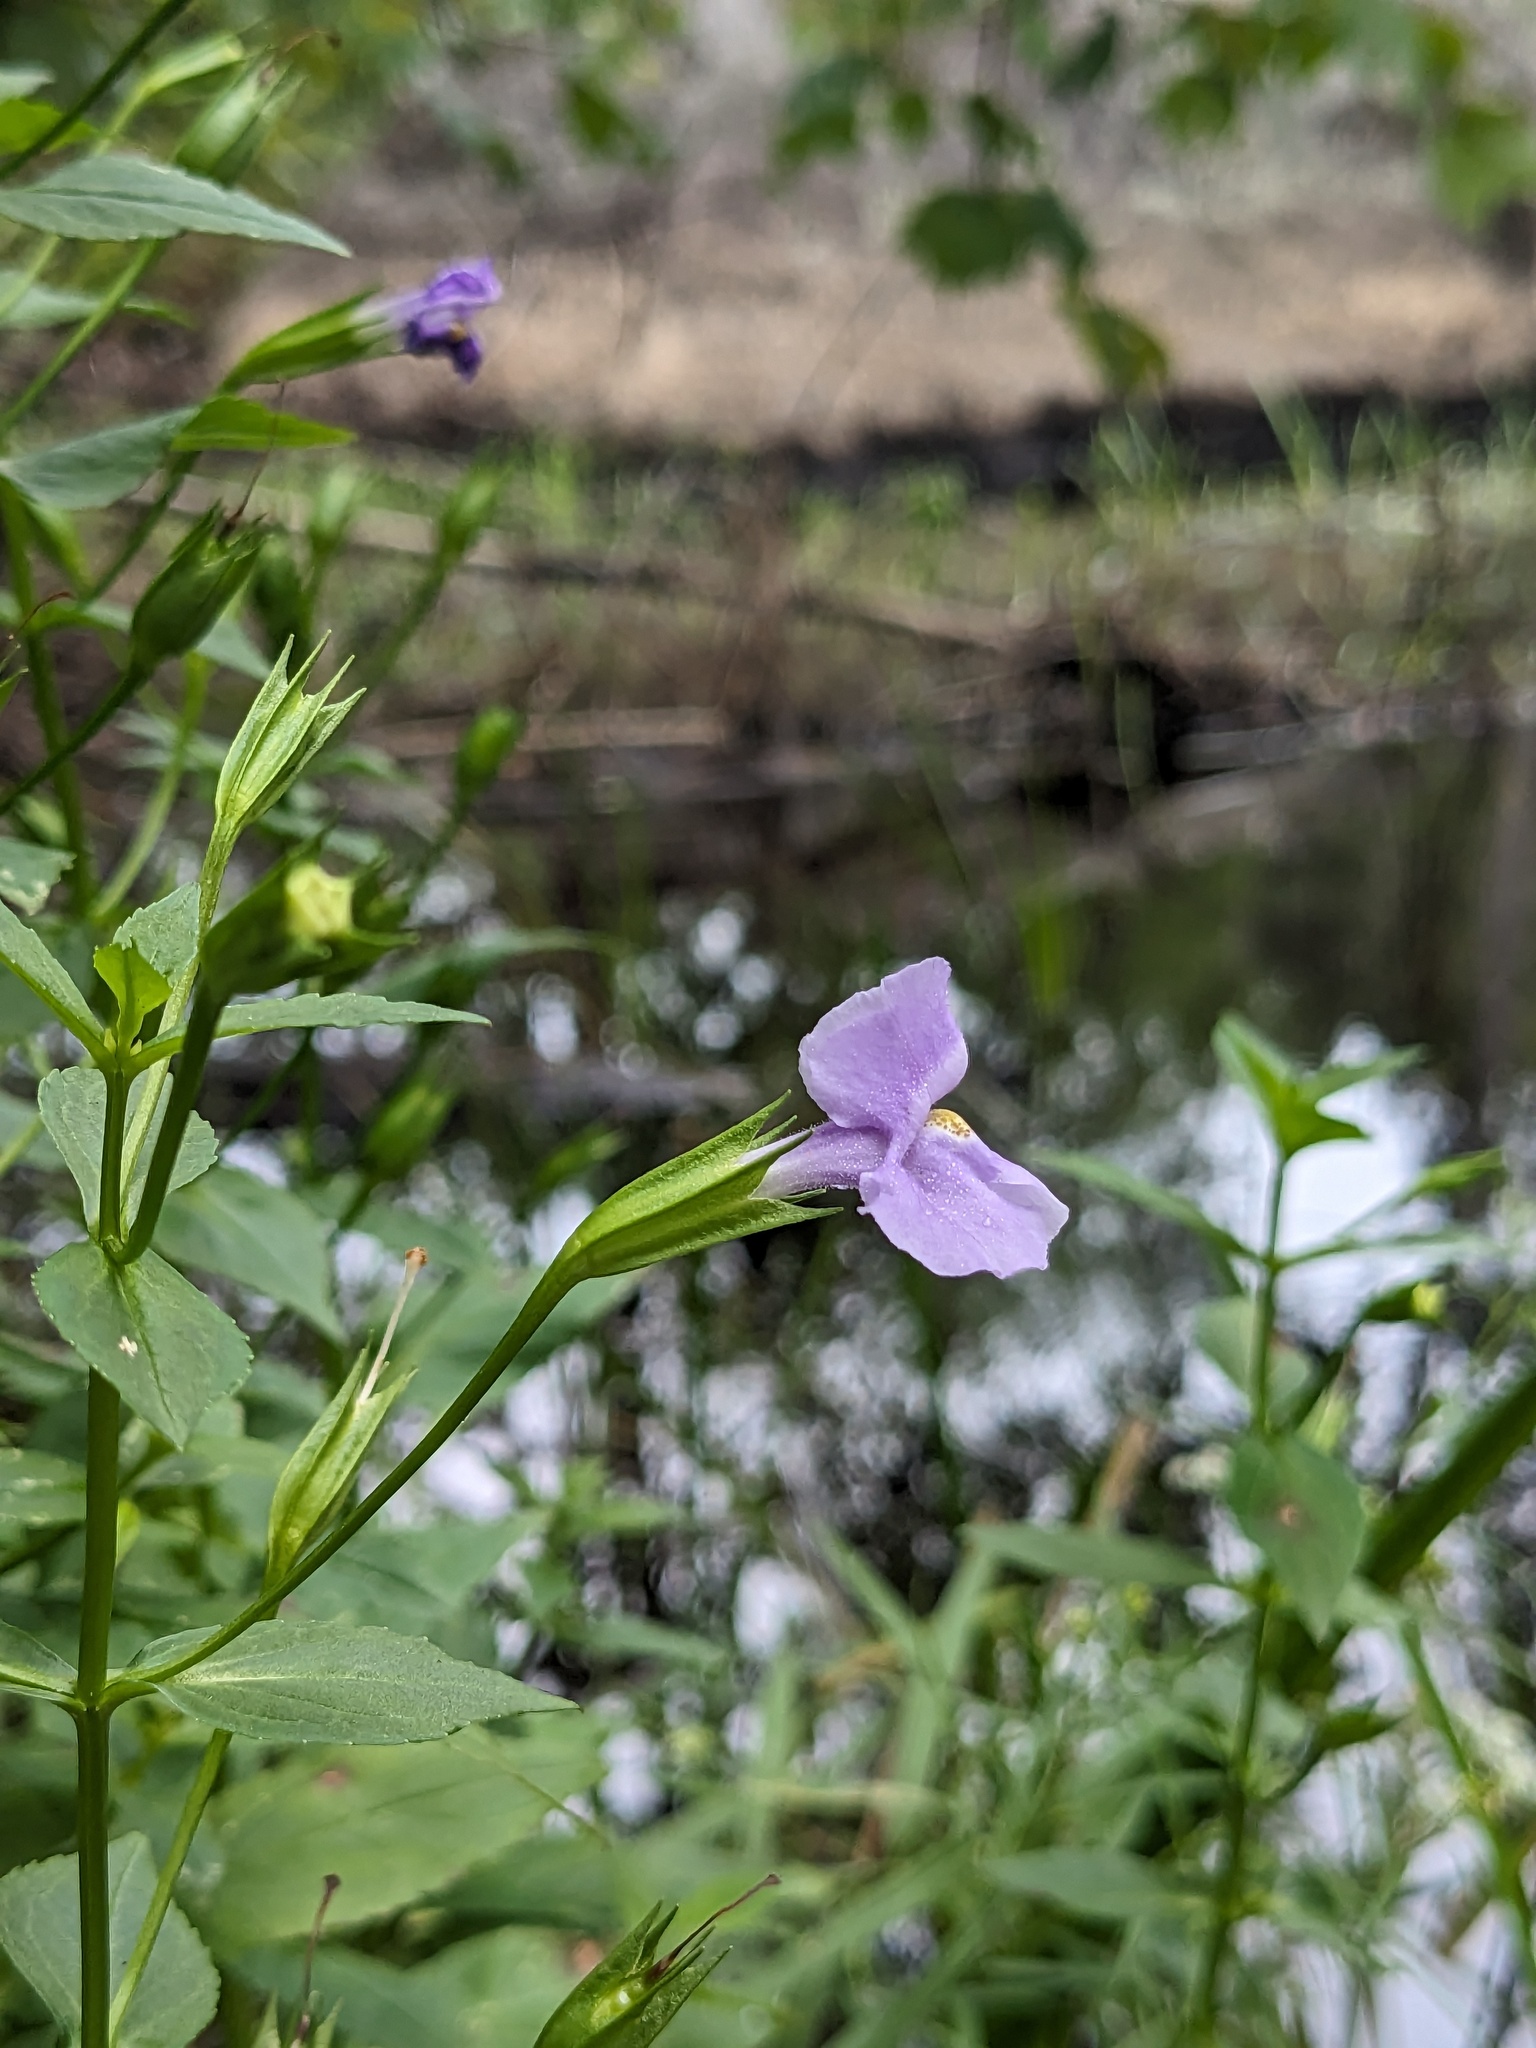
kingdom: Plantae
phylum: Tracheophyta
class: Magnoliopsida
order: Lamiales
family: Phrymaceae
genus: Mimulus
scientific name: Mimulus ringens
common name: Allegheny monkeyflower
